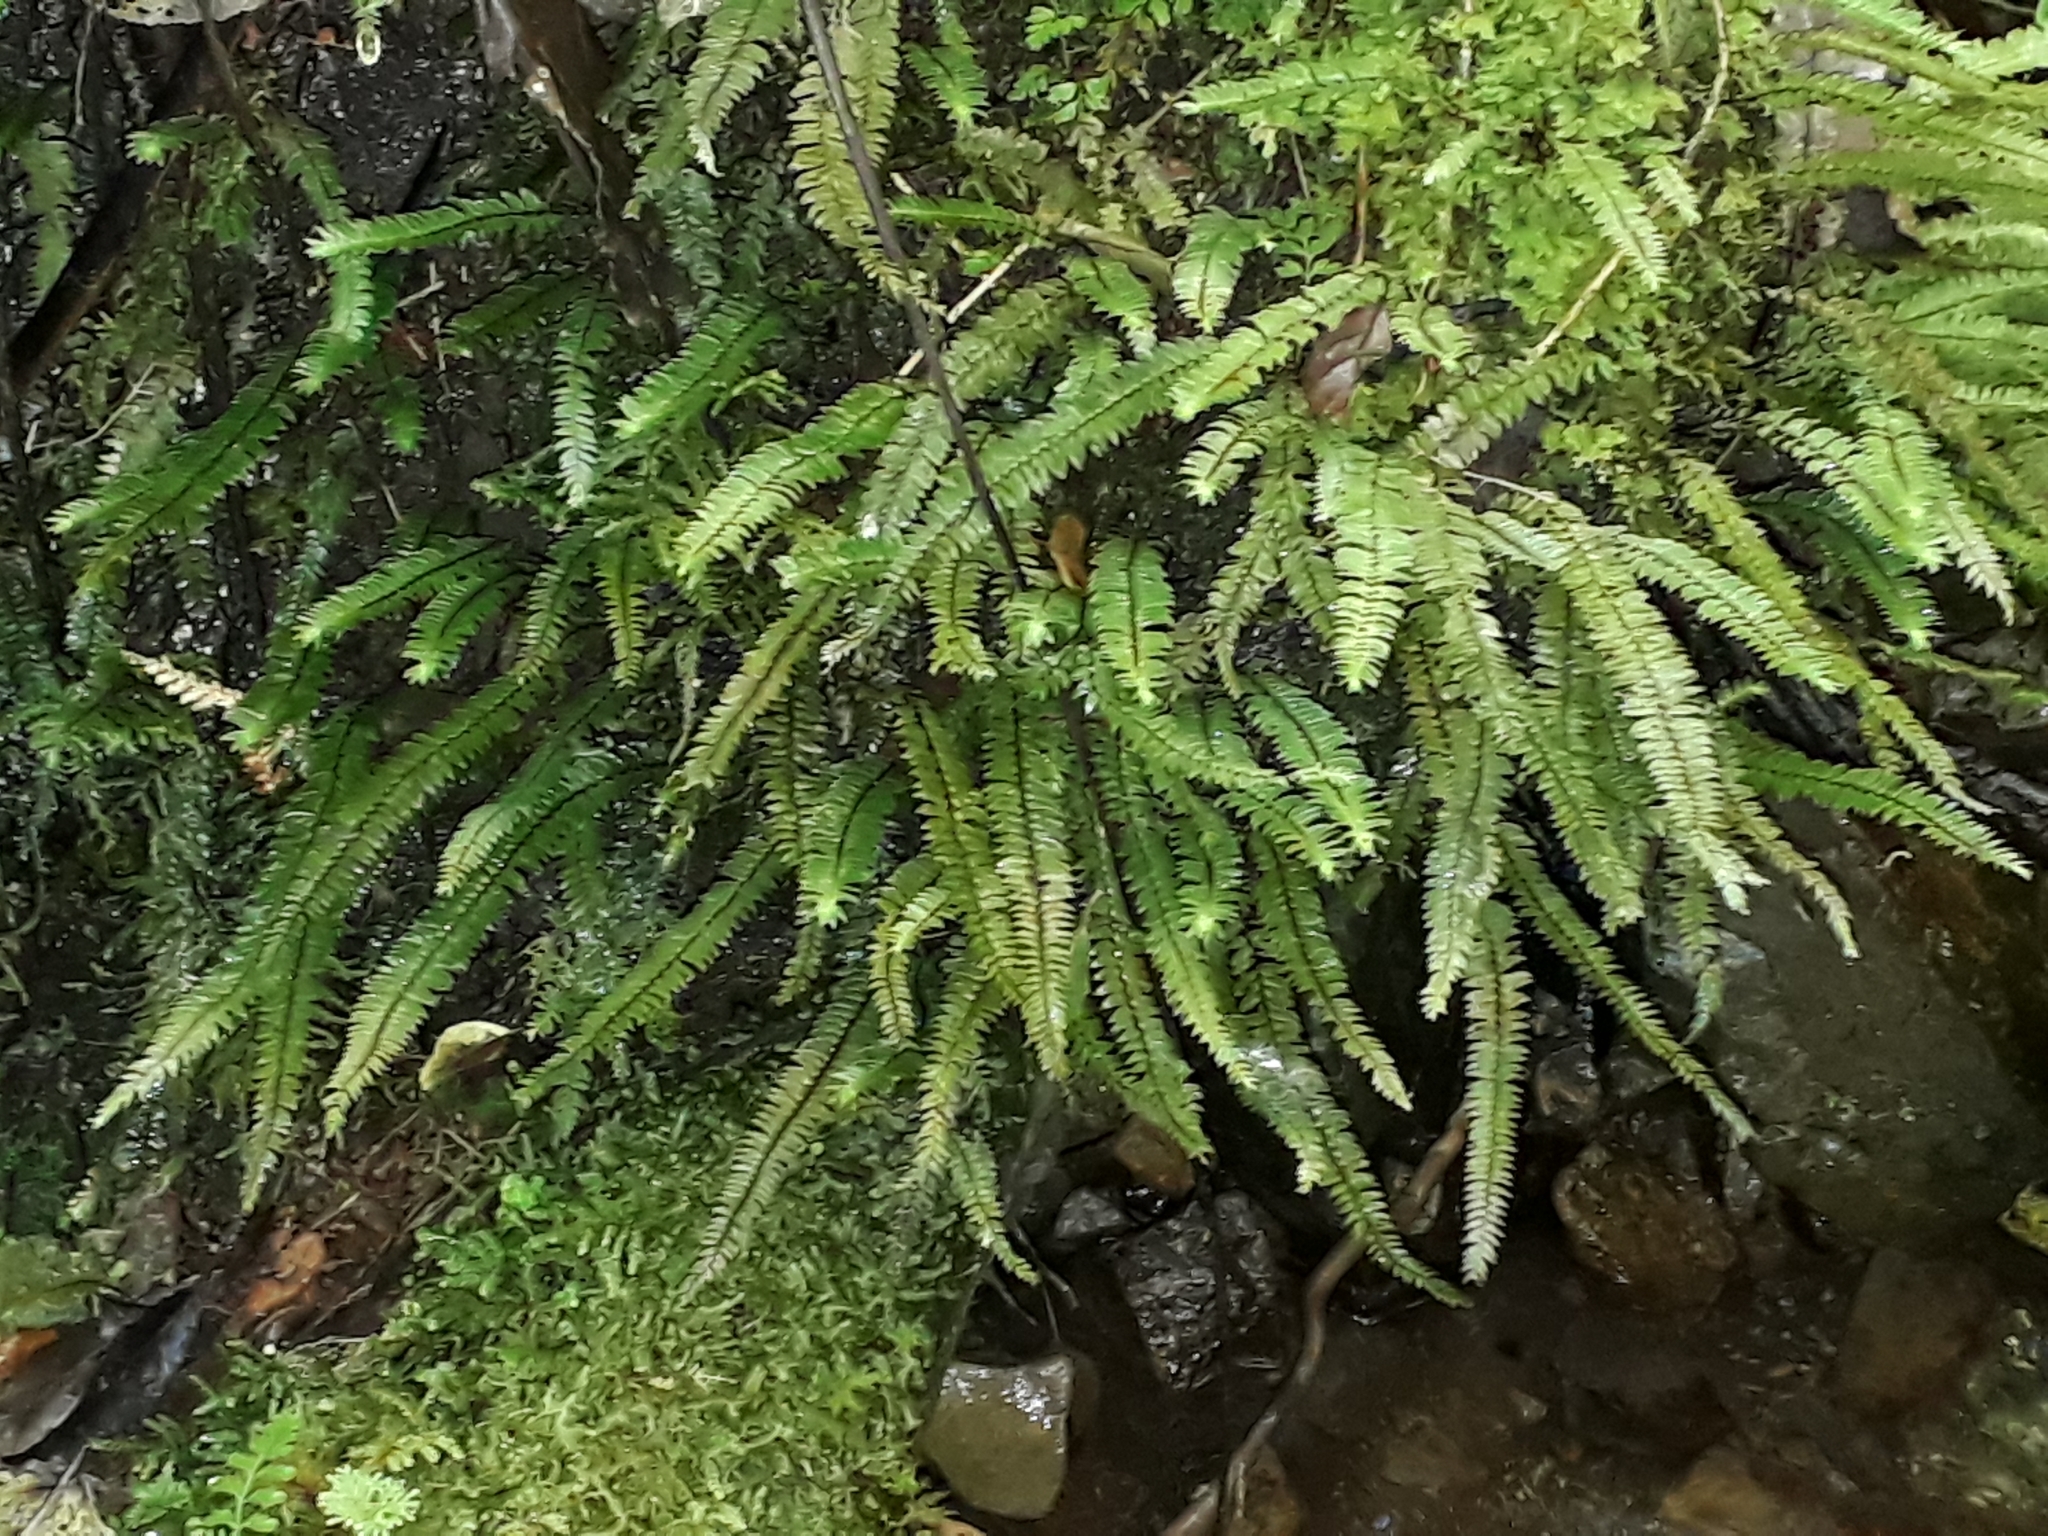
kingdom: Plantae
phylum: Bryophyta
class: Bryopsida
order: Hypopterygiales
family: Hypopterygiaceae
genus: Cyathophorum
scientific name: Cyathophorum bulbosum
